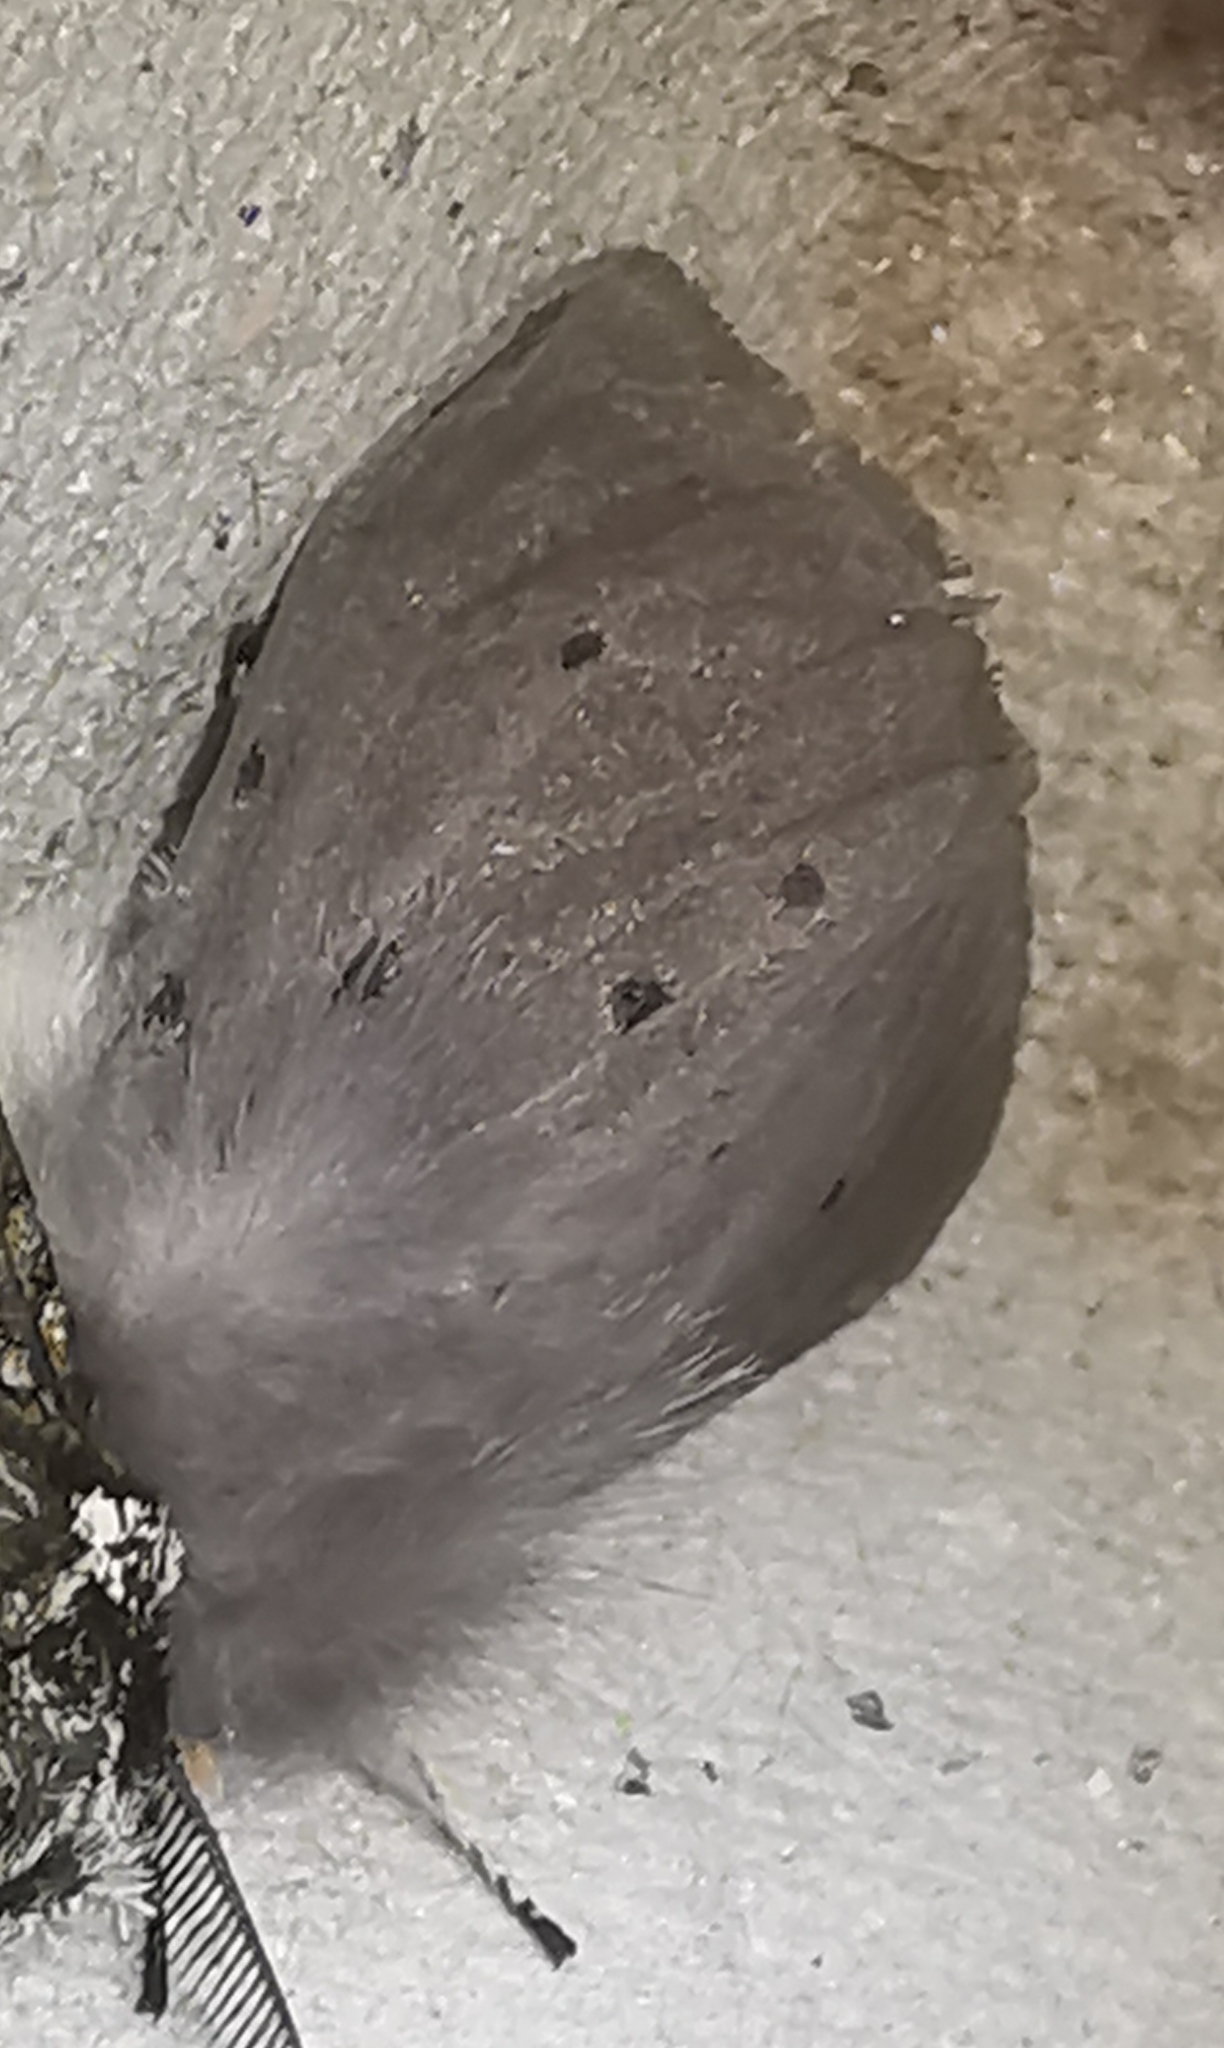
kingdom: Animalia
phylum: Arthropoda
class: Insecta
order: Lepidoptera
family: Erebidae
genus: Diaphora
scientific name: Diaphora mendica
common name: Muslin moth
